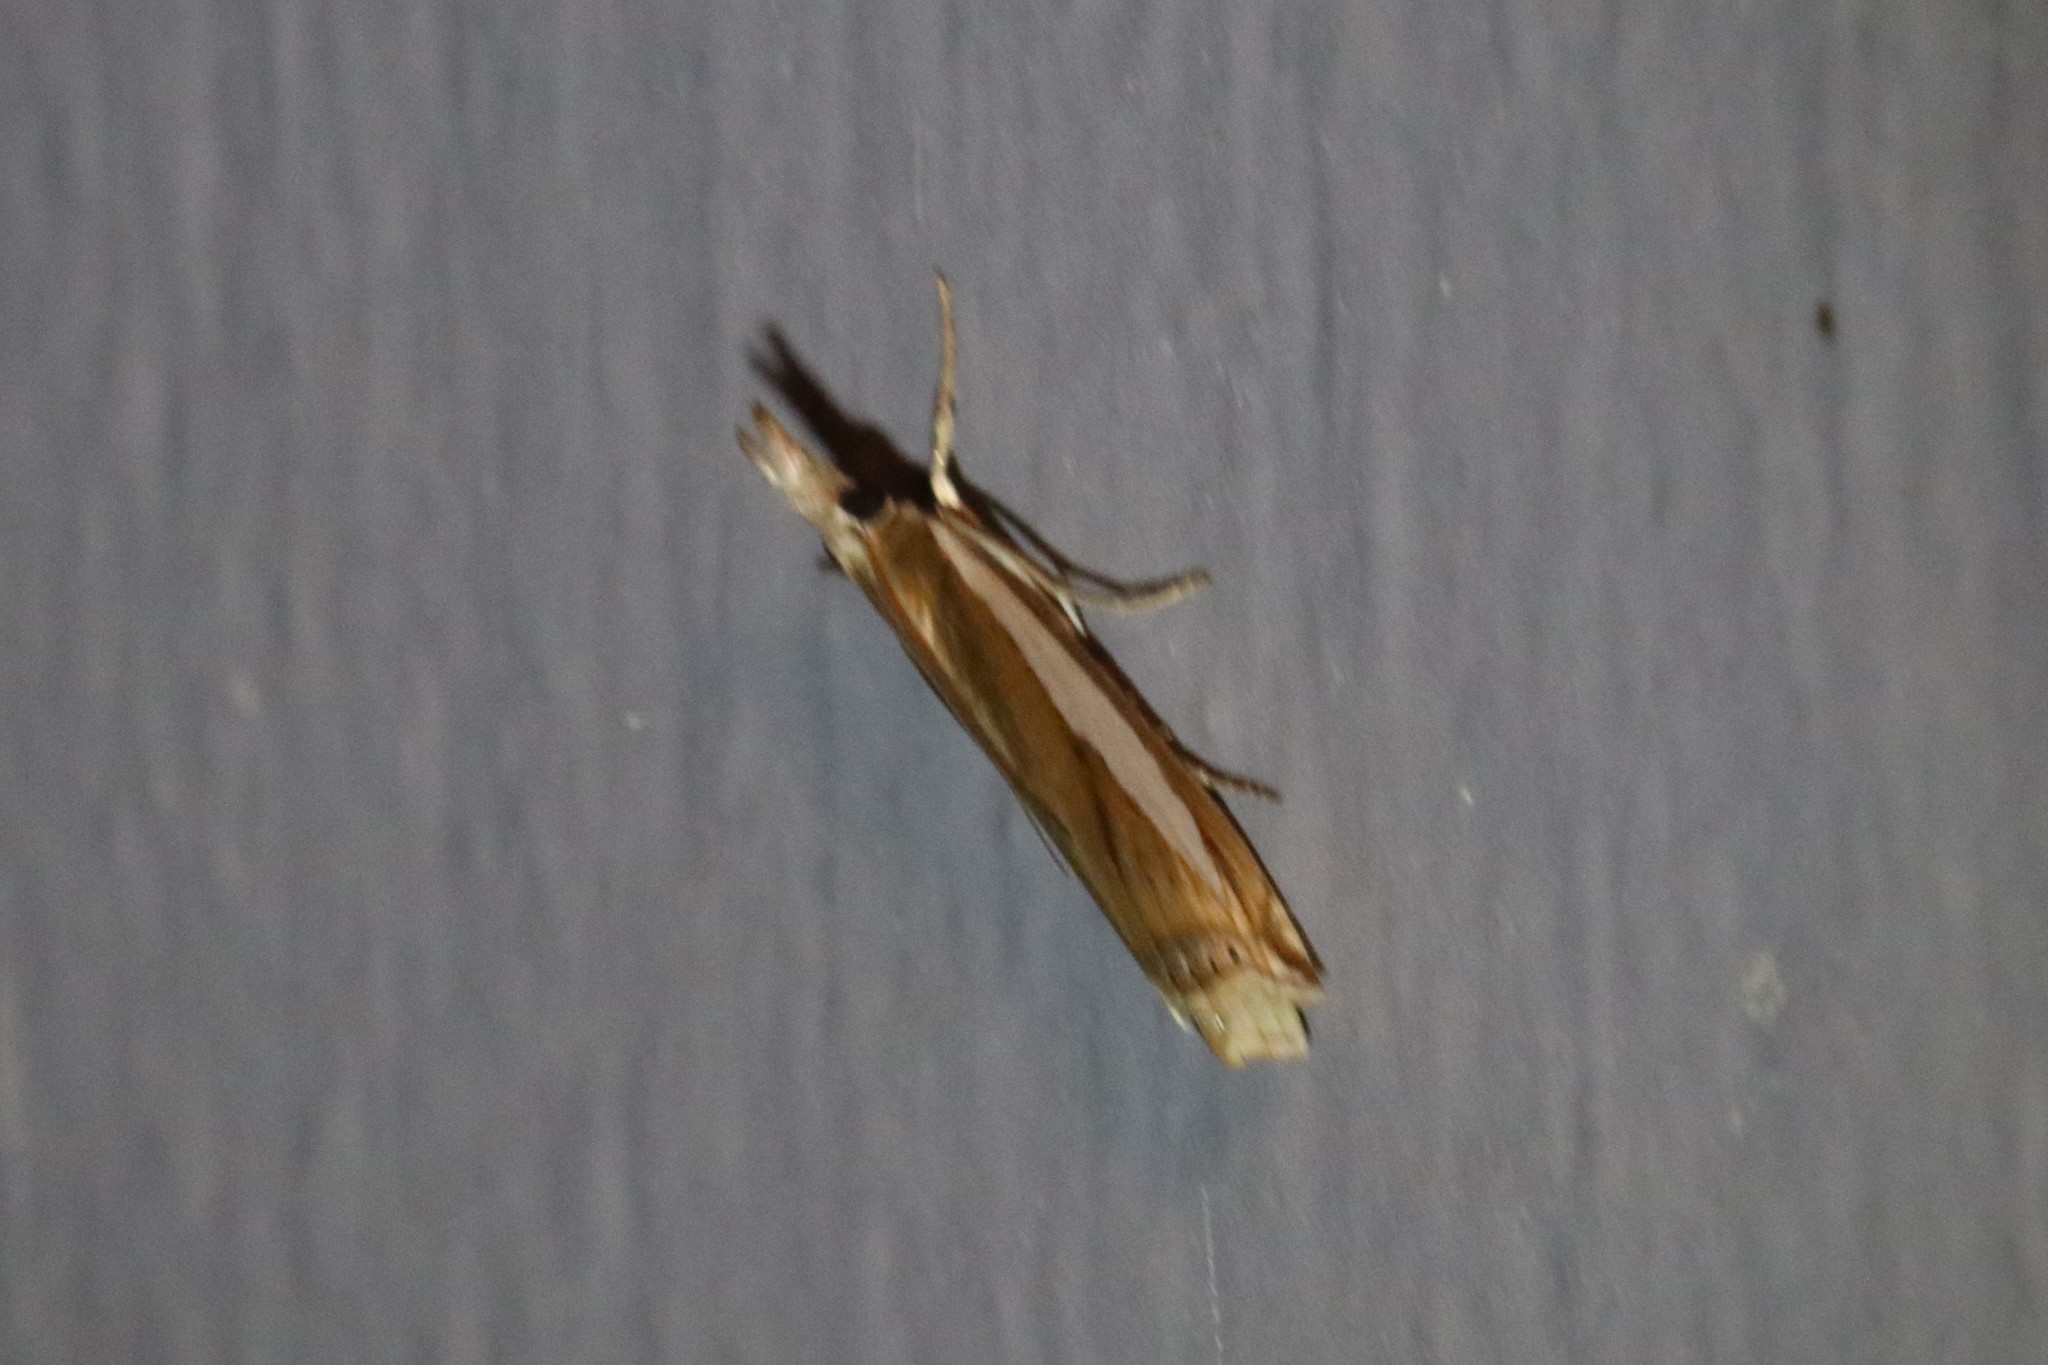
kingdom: Animalia
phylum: Arthropoda
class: Insecta
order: Lepidoptera
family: Crambidae
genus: Crambus
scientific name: Crambus praefectellus
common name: Common grass-veneer
